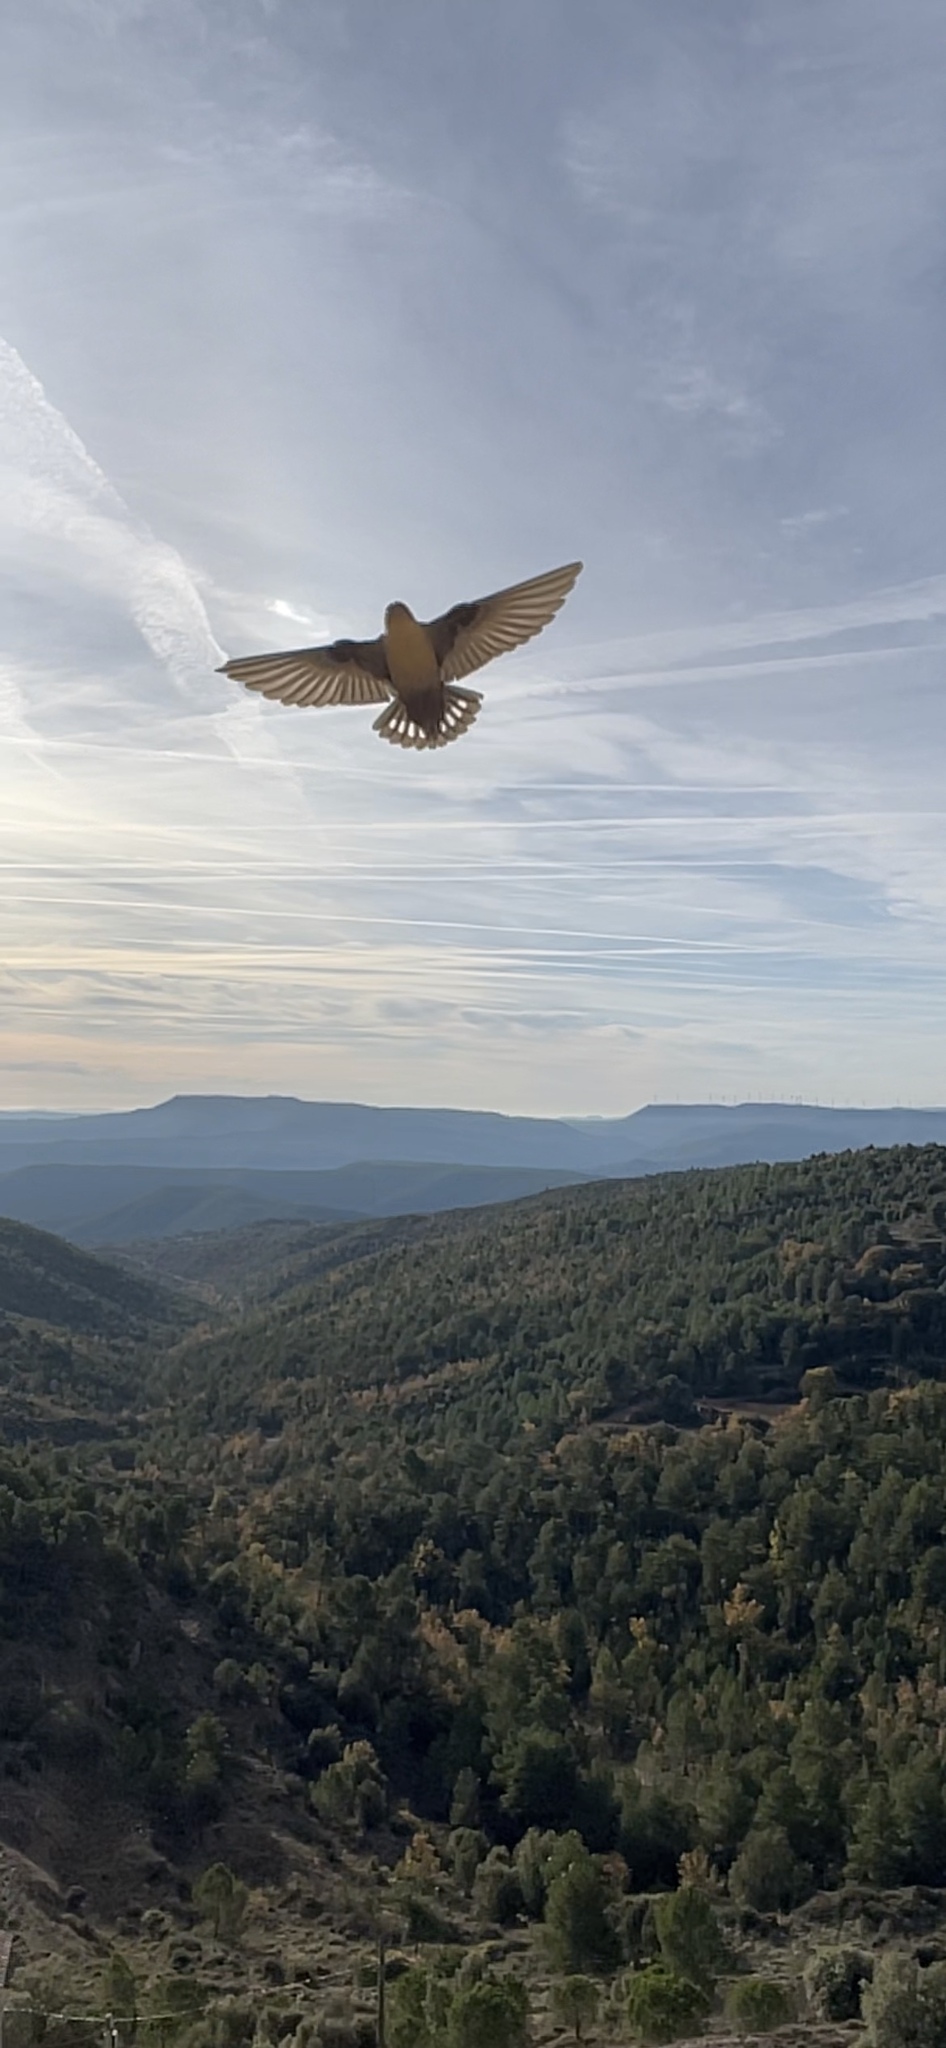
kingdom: Animalia
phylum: Chordata
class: Aves
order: Passeriformes
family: Hirundinidae
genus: Ptyonoprogne
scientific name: Ptyonoprogne rupestris
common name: Eurasian crag martin
